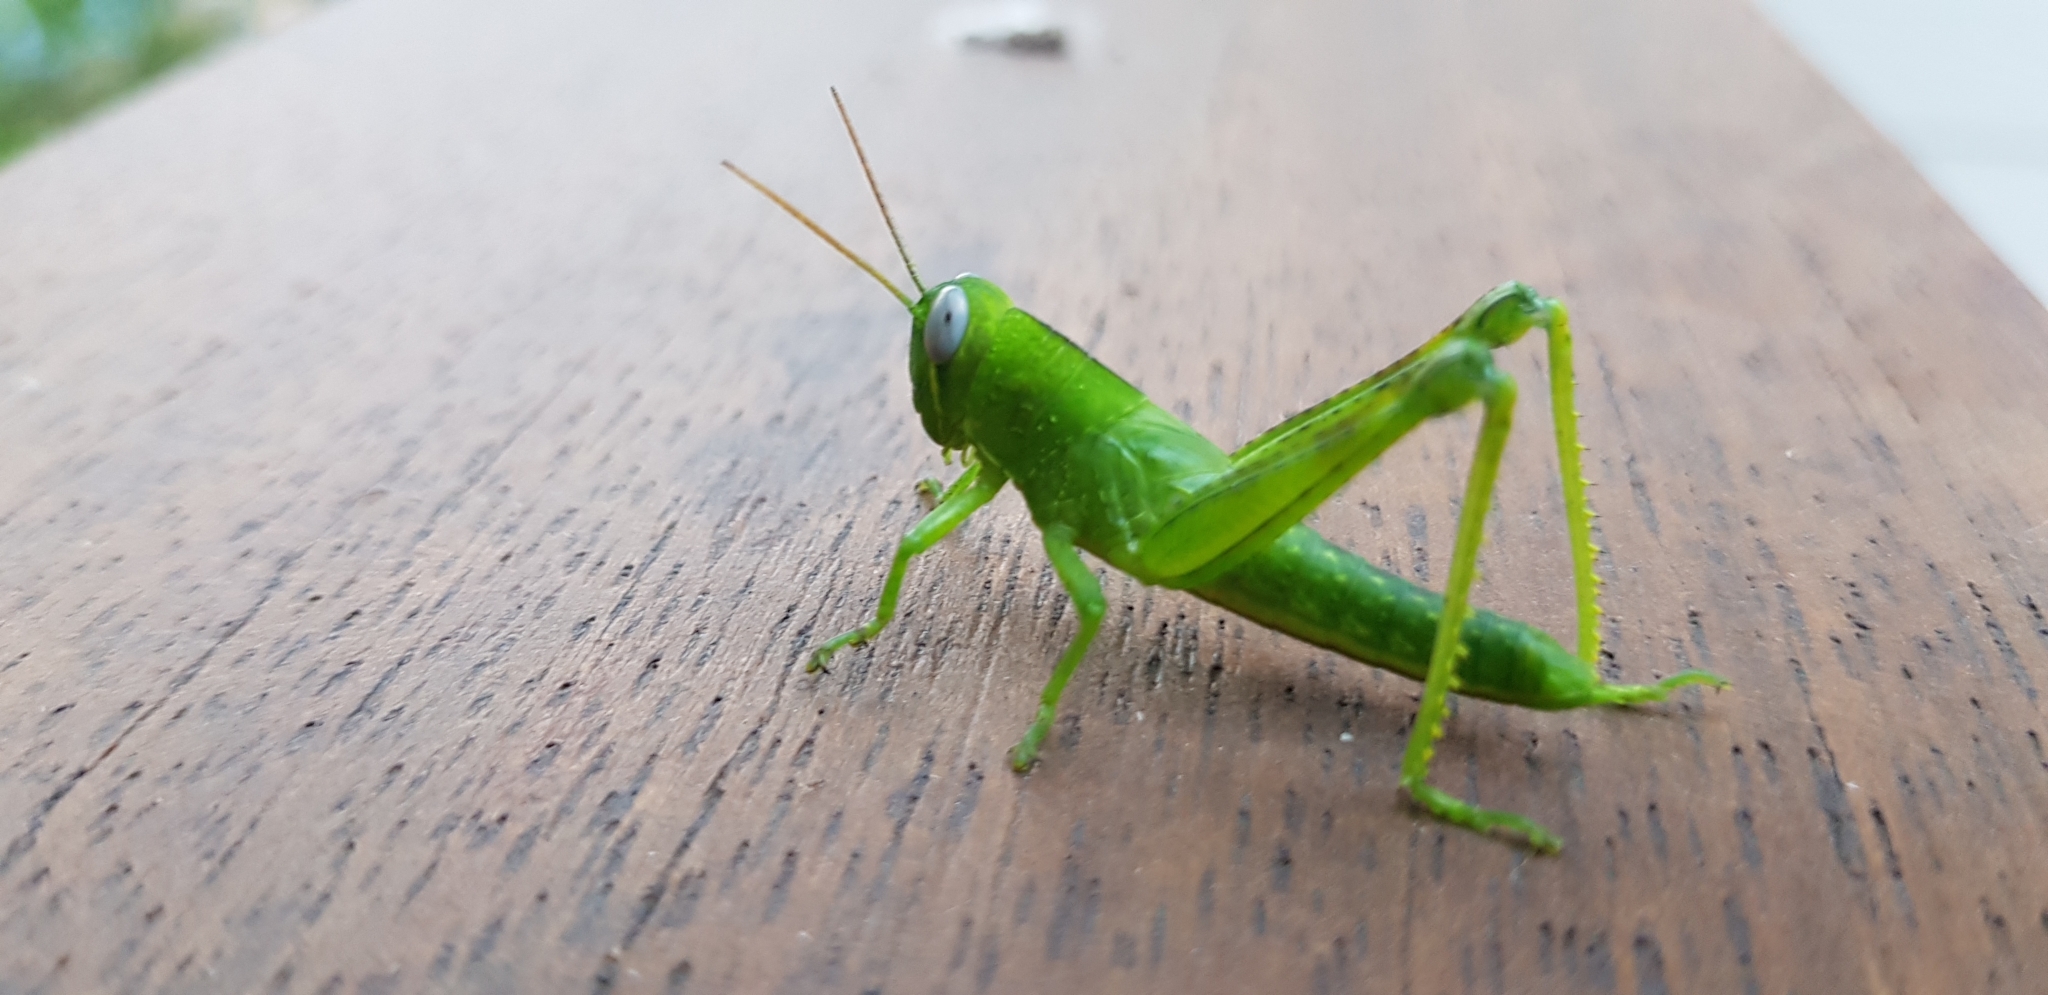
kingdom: Animalia
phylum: Arthropoda
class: Insecta
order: Orthoptera
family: Acrididae
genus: Valanga
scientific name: Valanga irregularis
